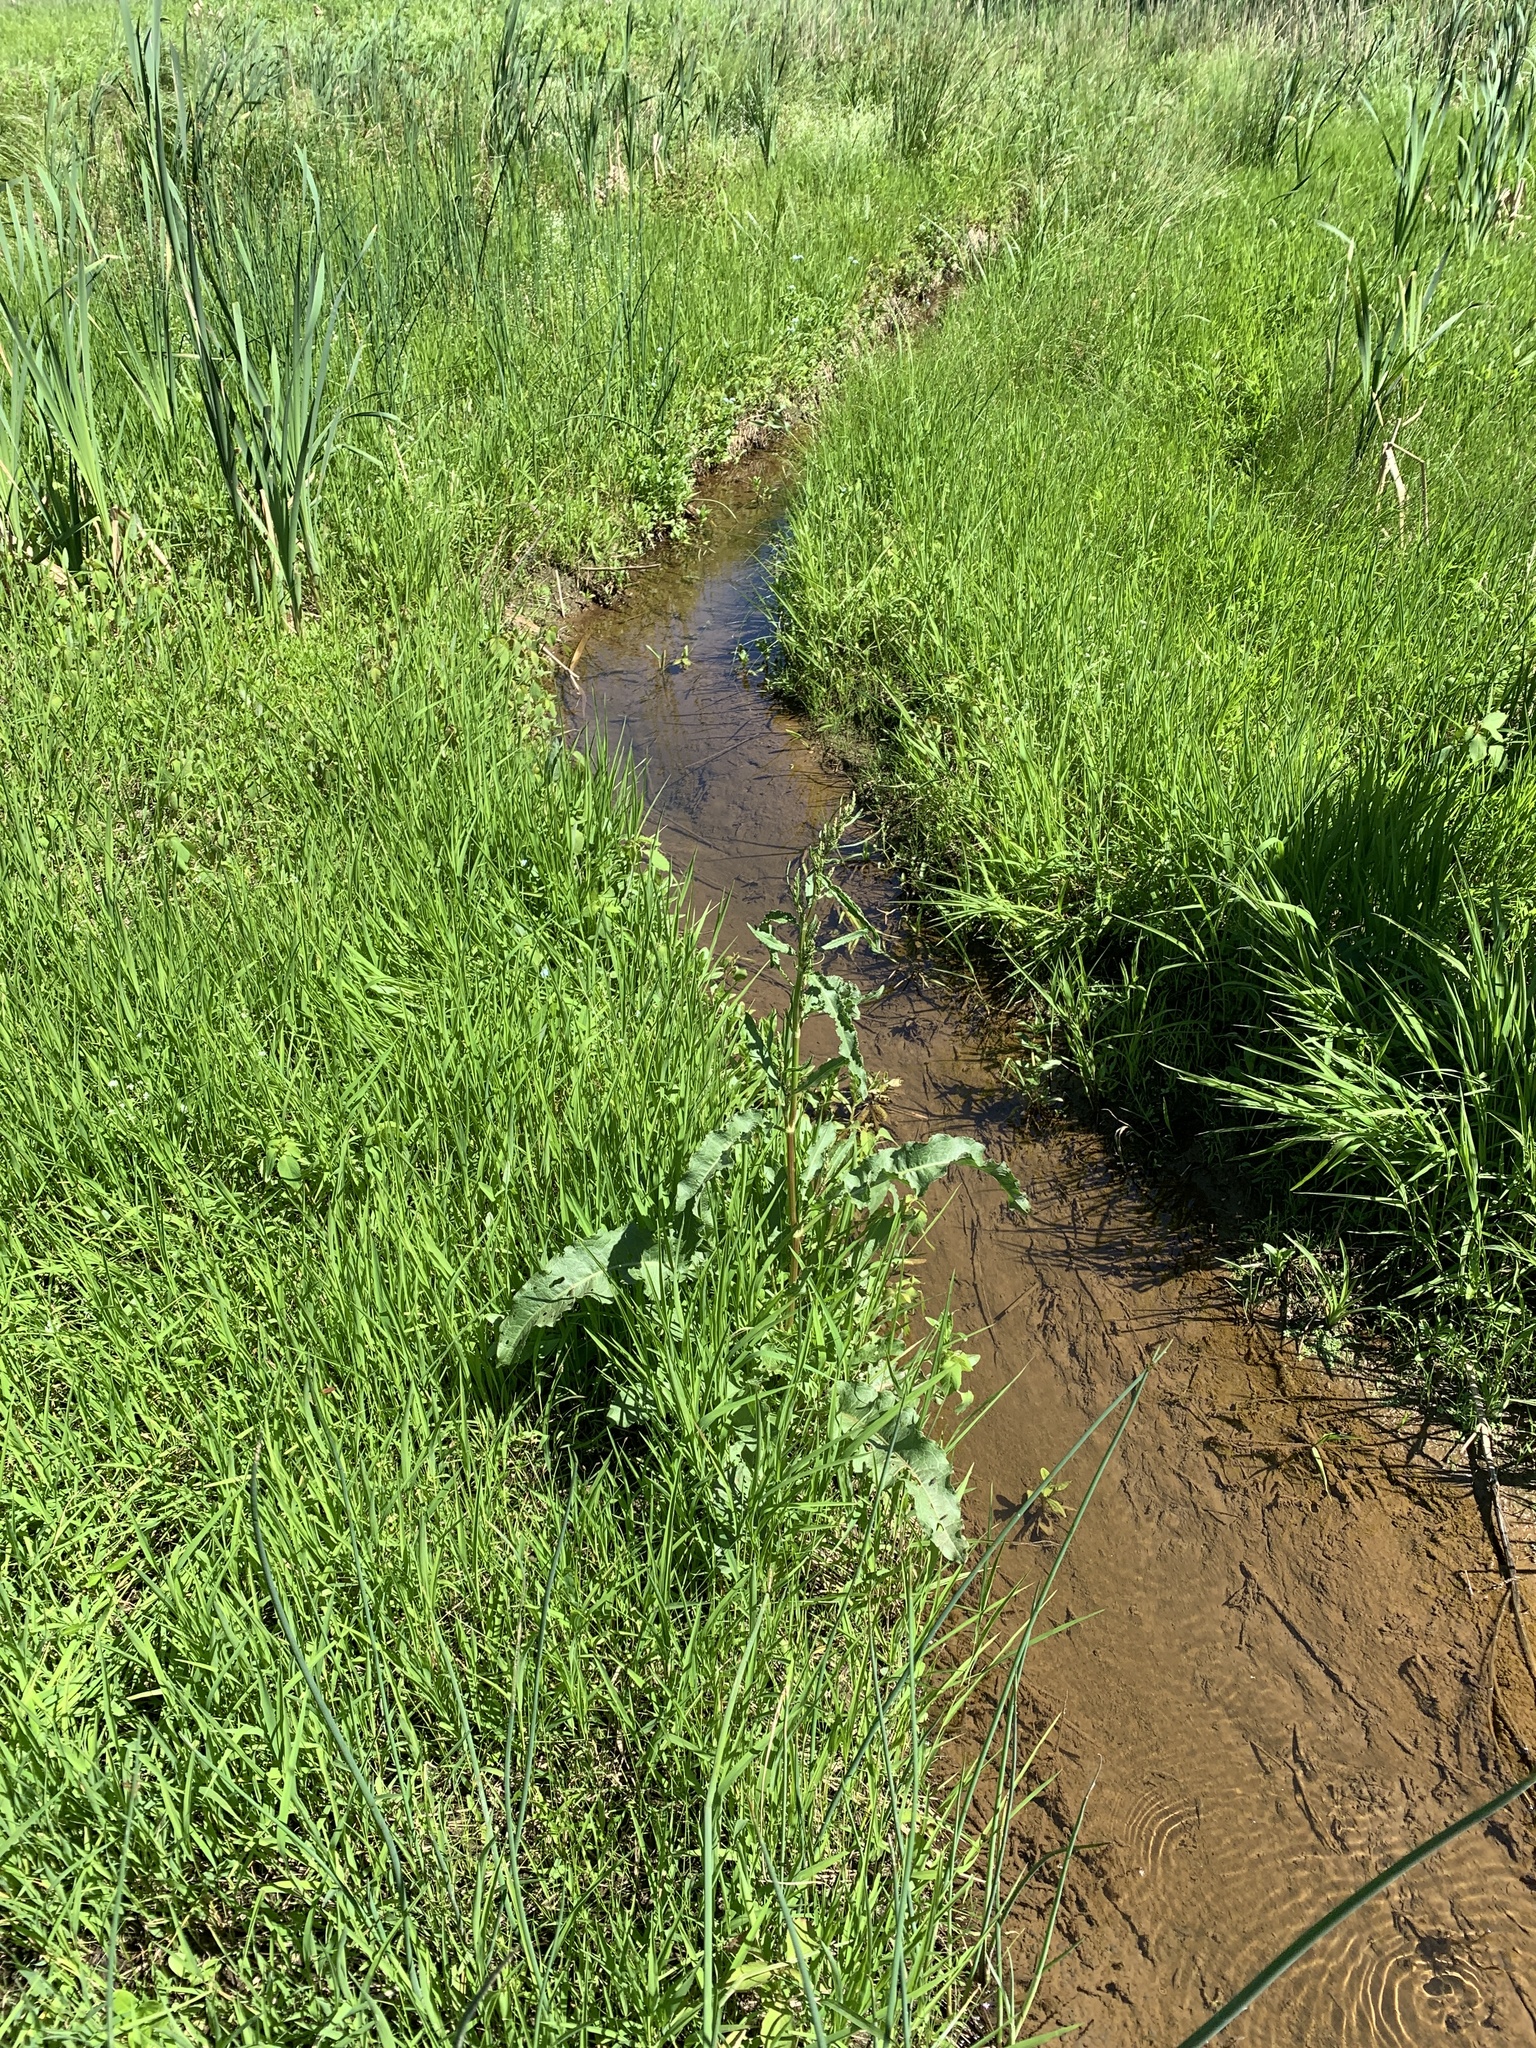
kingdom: Plantae
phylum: Tracheophyta
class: Magnoliopsida
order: Caryophyllales
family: Polygonaceae
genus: Rumex
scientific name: Rumex crispus
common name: Curled dock
